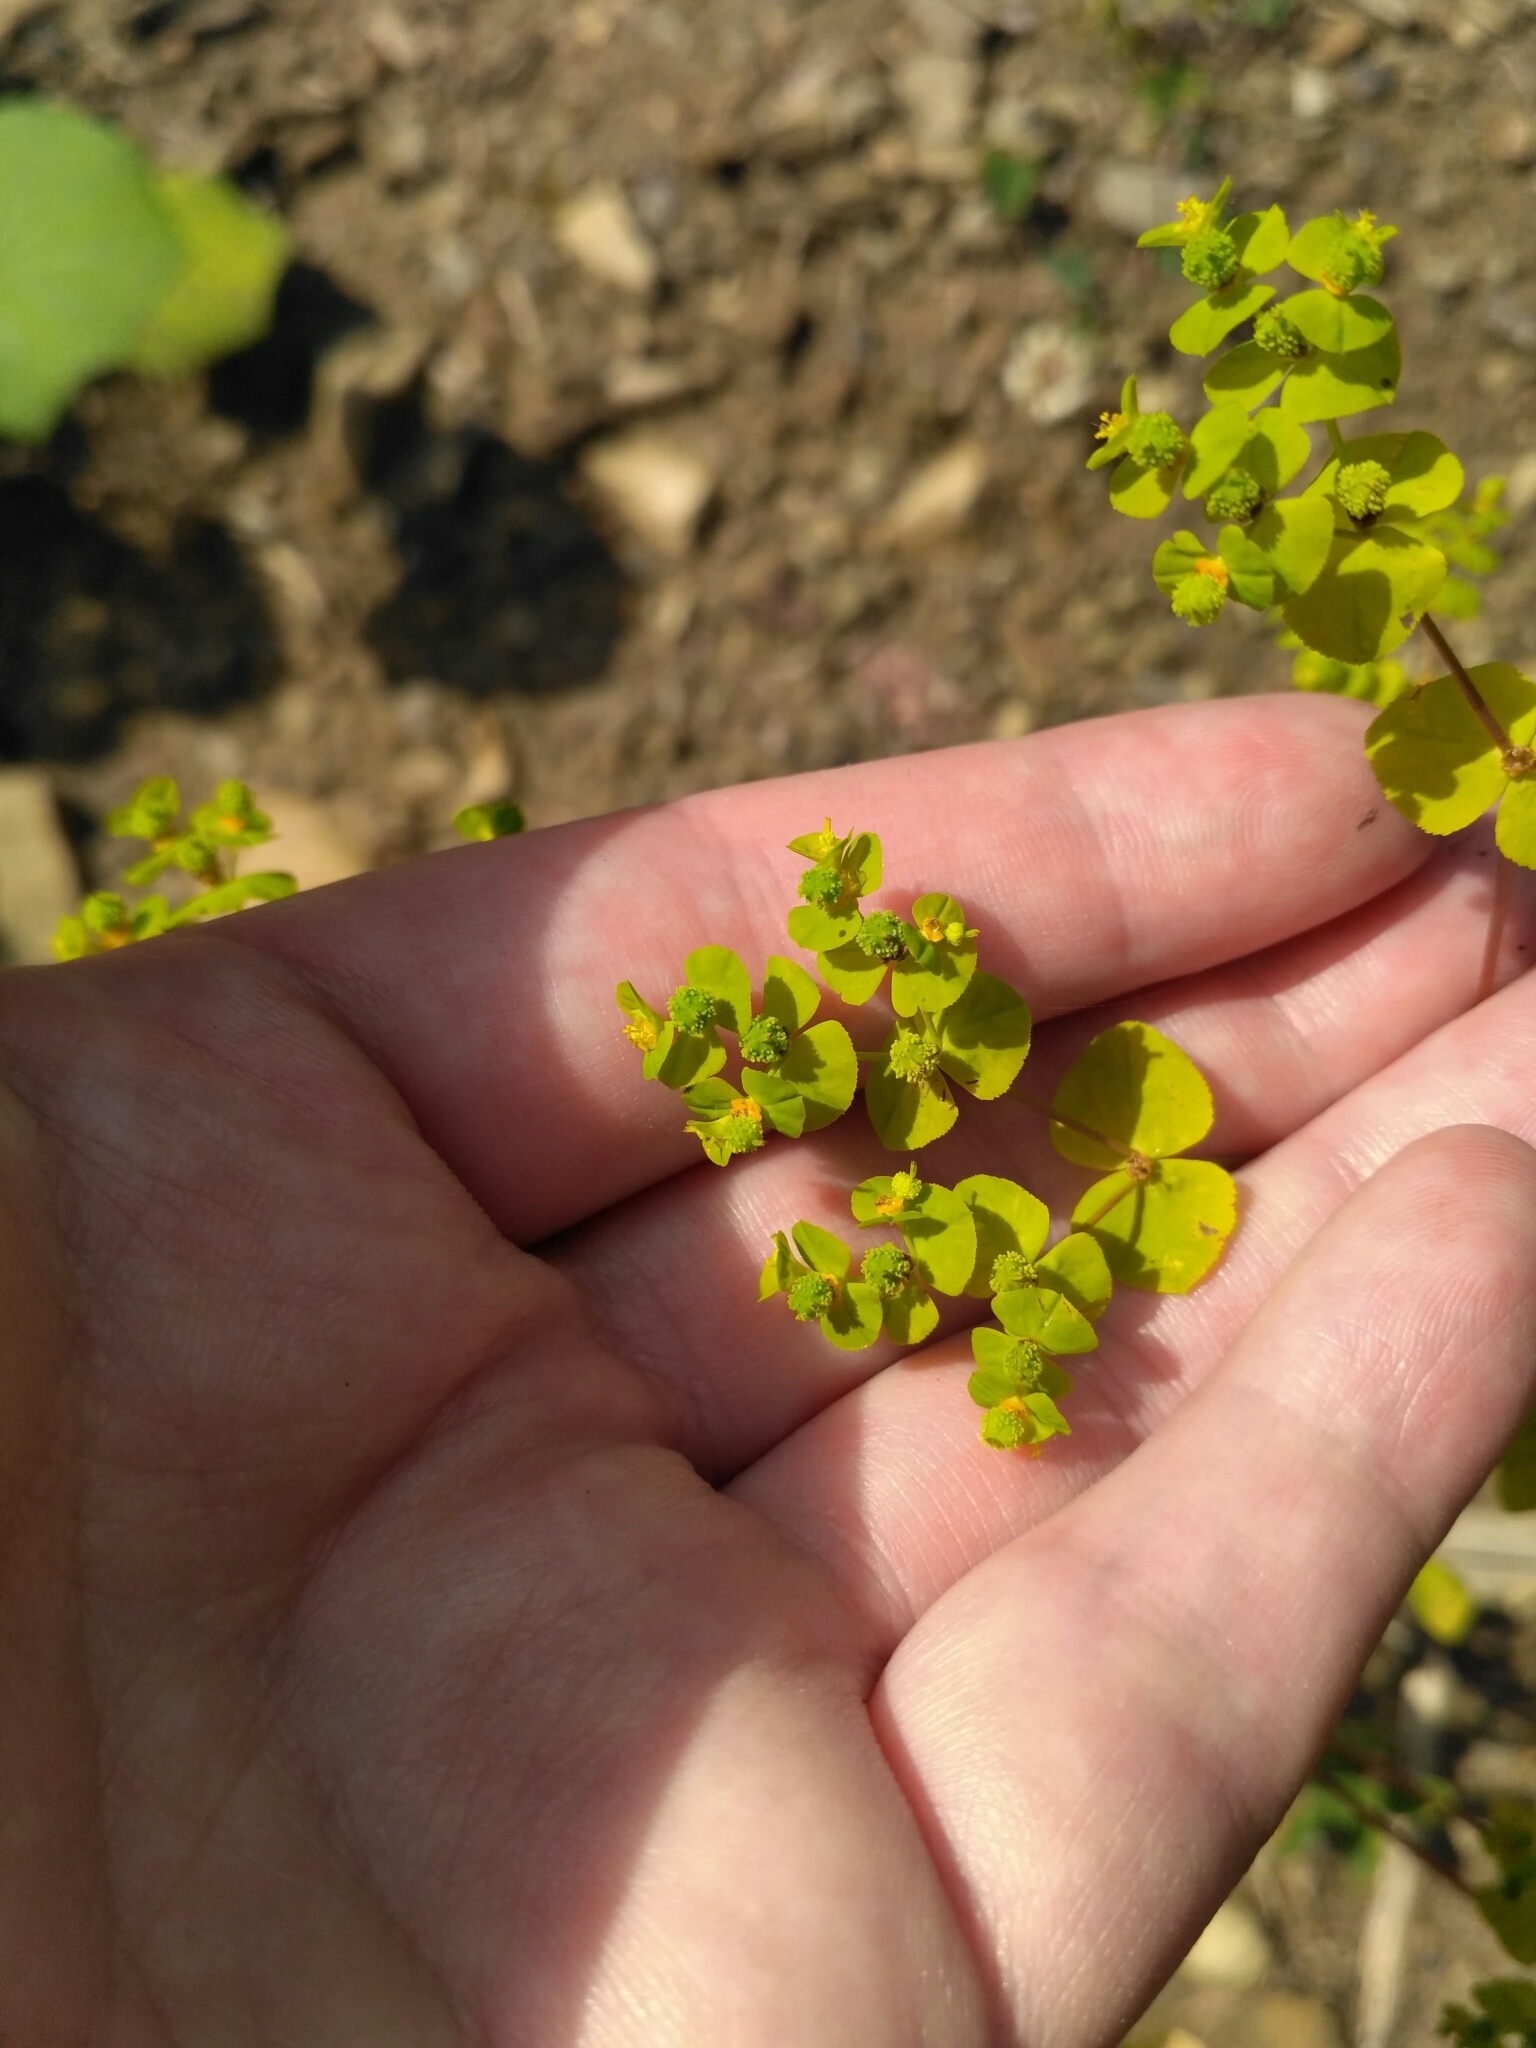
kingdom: Plantae
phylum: Tracheophyta
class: Magnoliopsida
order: Malpighiales
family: Euphorbiaceae
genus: Euphorbia
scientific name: Euphorbia stricta
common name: Upright spurge
